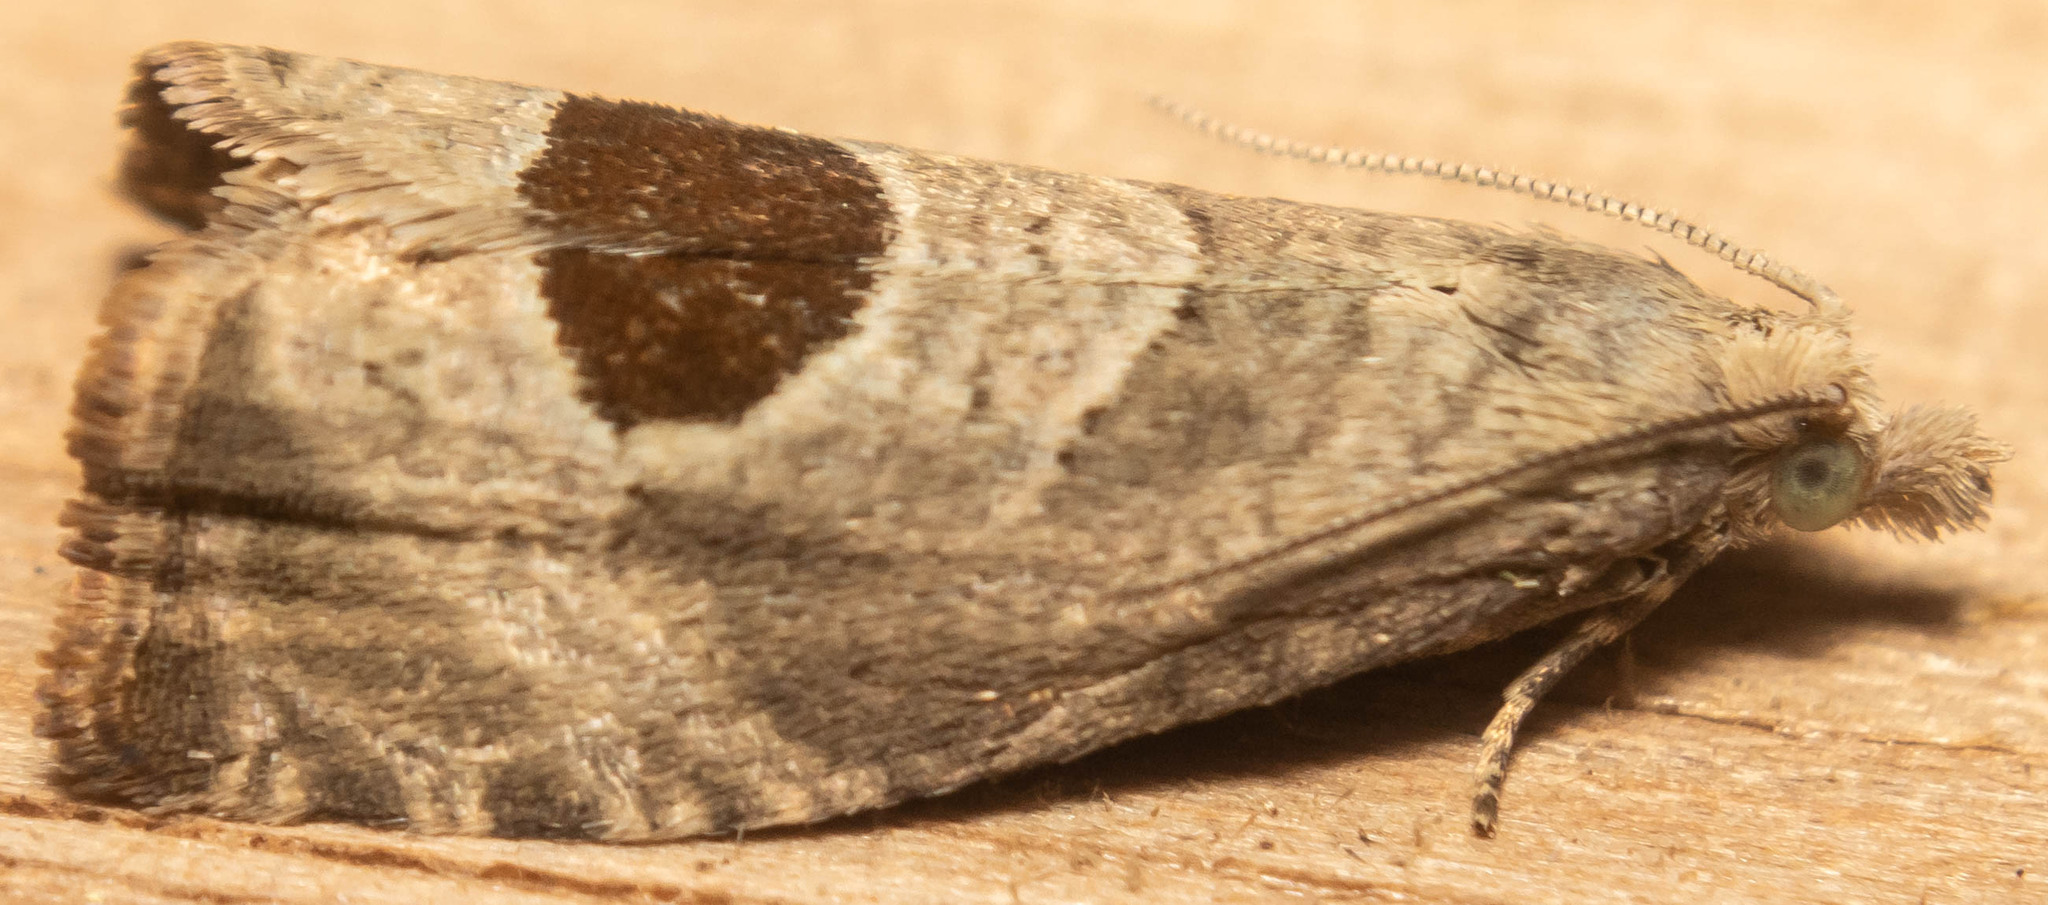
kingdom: Animalia
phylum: Arthropoda
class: Insecta
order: Lepidoptera
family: Tortricidae
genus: Notocelia
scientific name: Notocelia uddmanniana
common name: Bramble shoot moth
